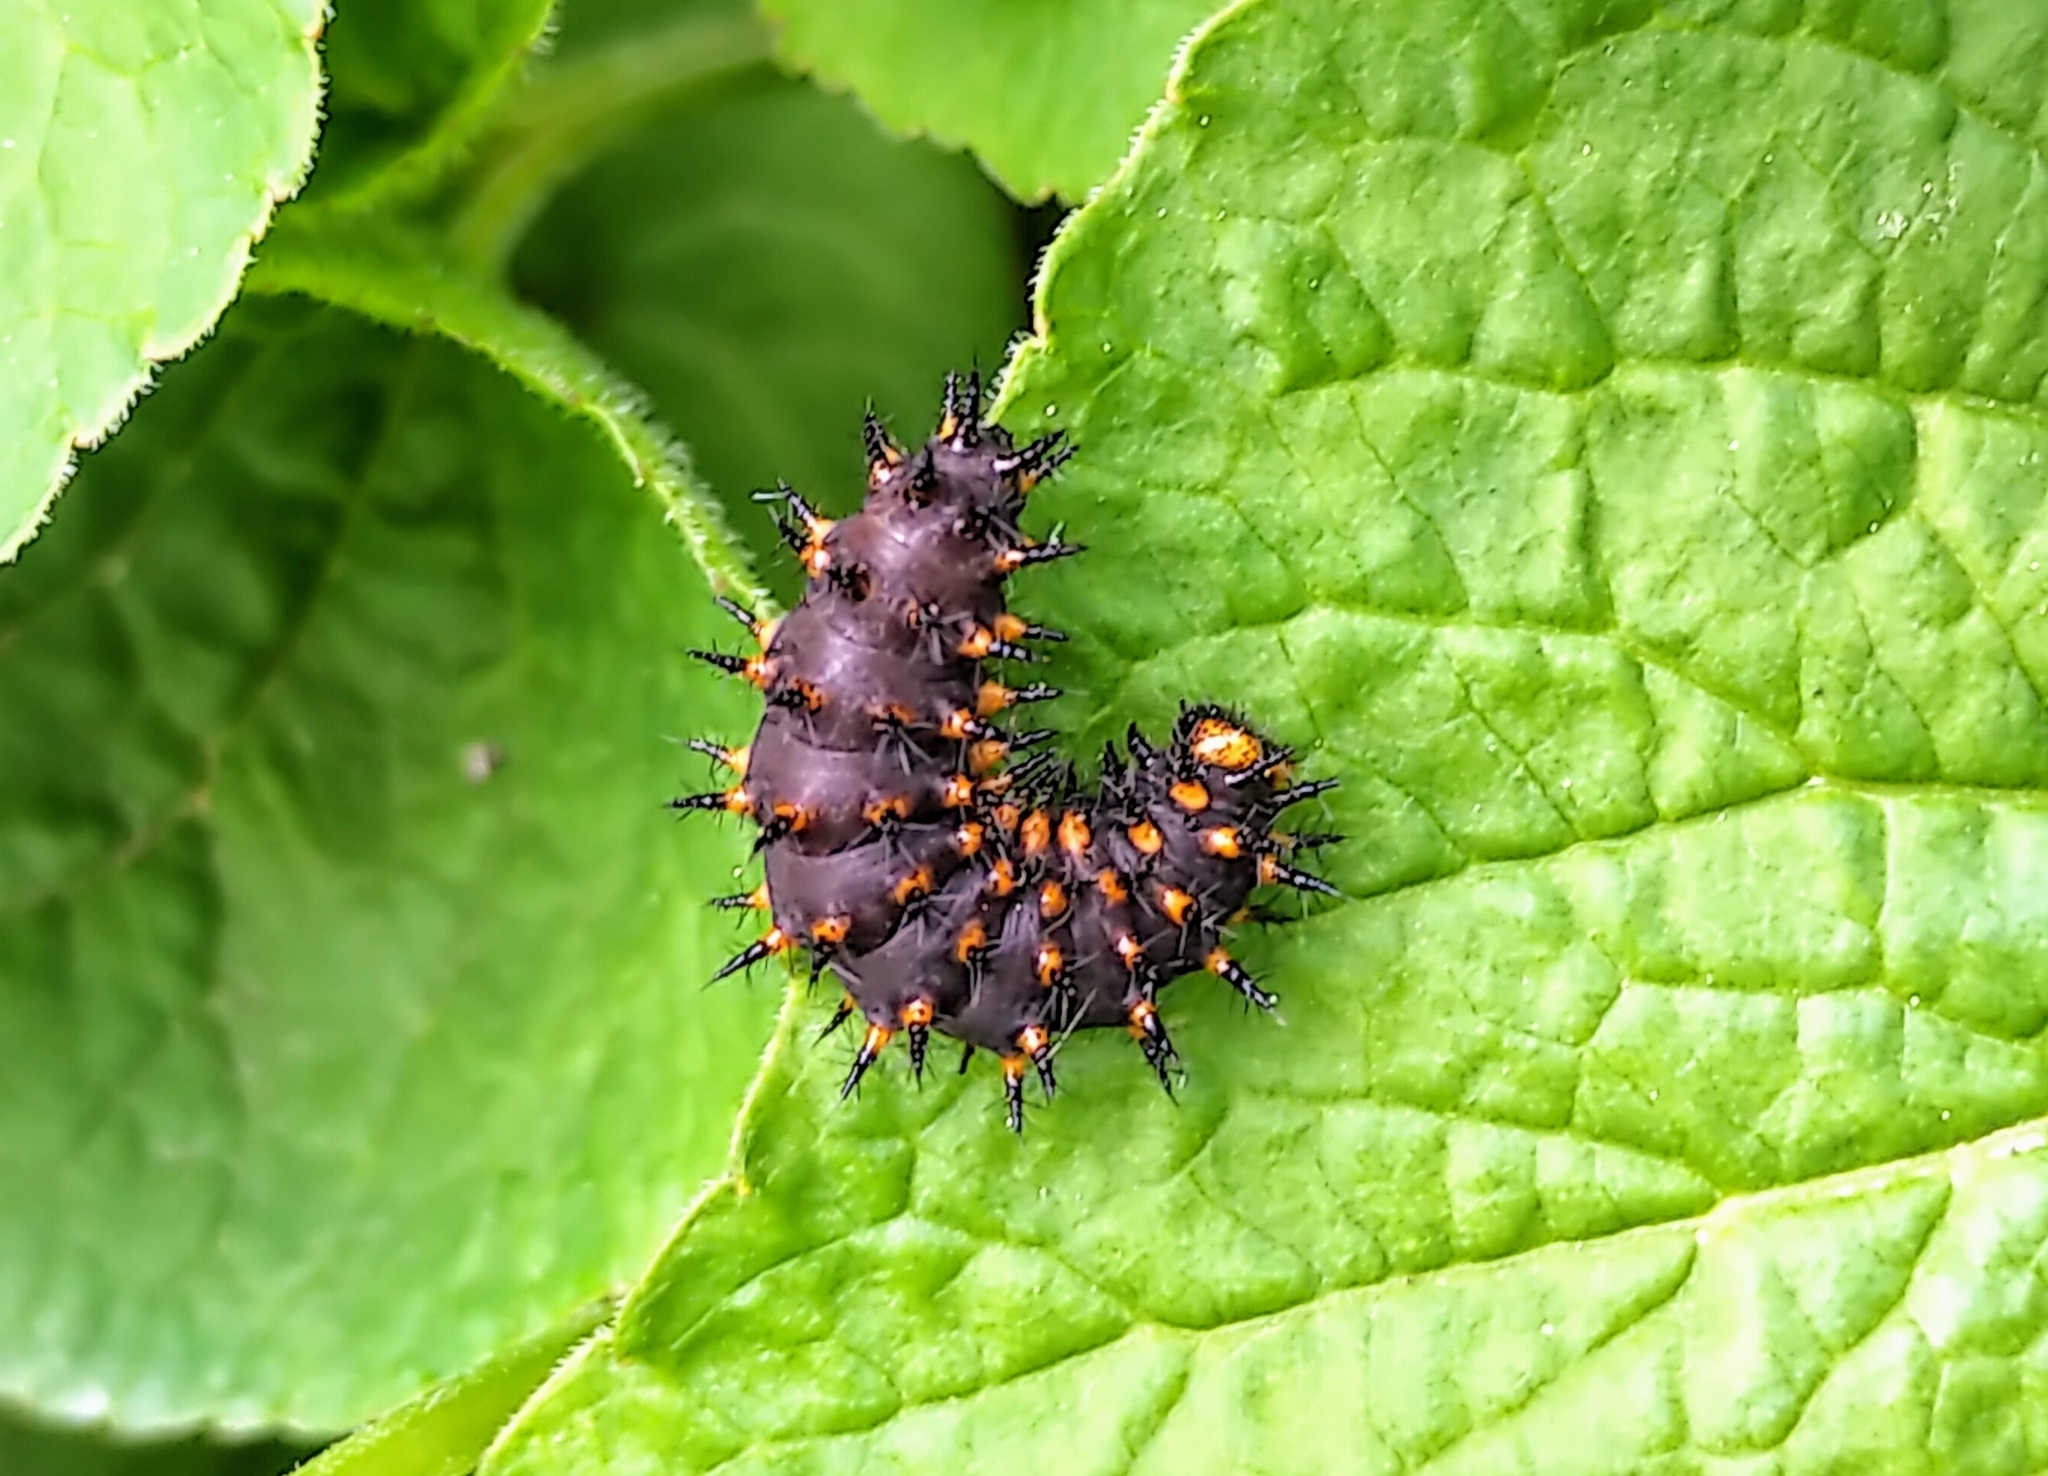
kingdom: Animalia
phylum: Arthropoda
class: Insecta
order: Lepidoptera
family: Nymphalidae
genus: Speyeria
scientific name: Speyeria cybele
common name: Great spangled fritillary
